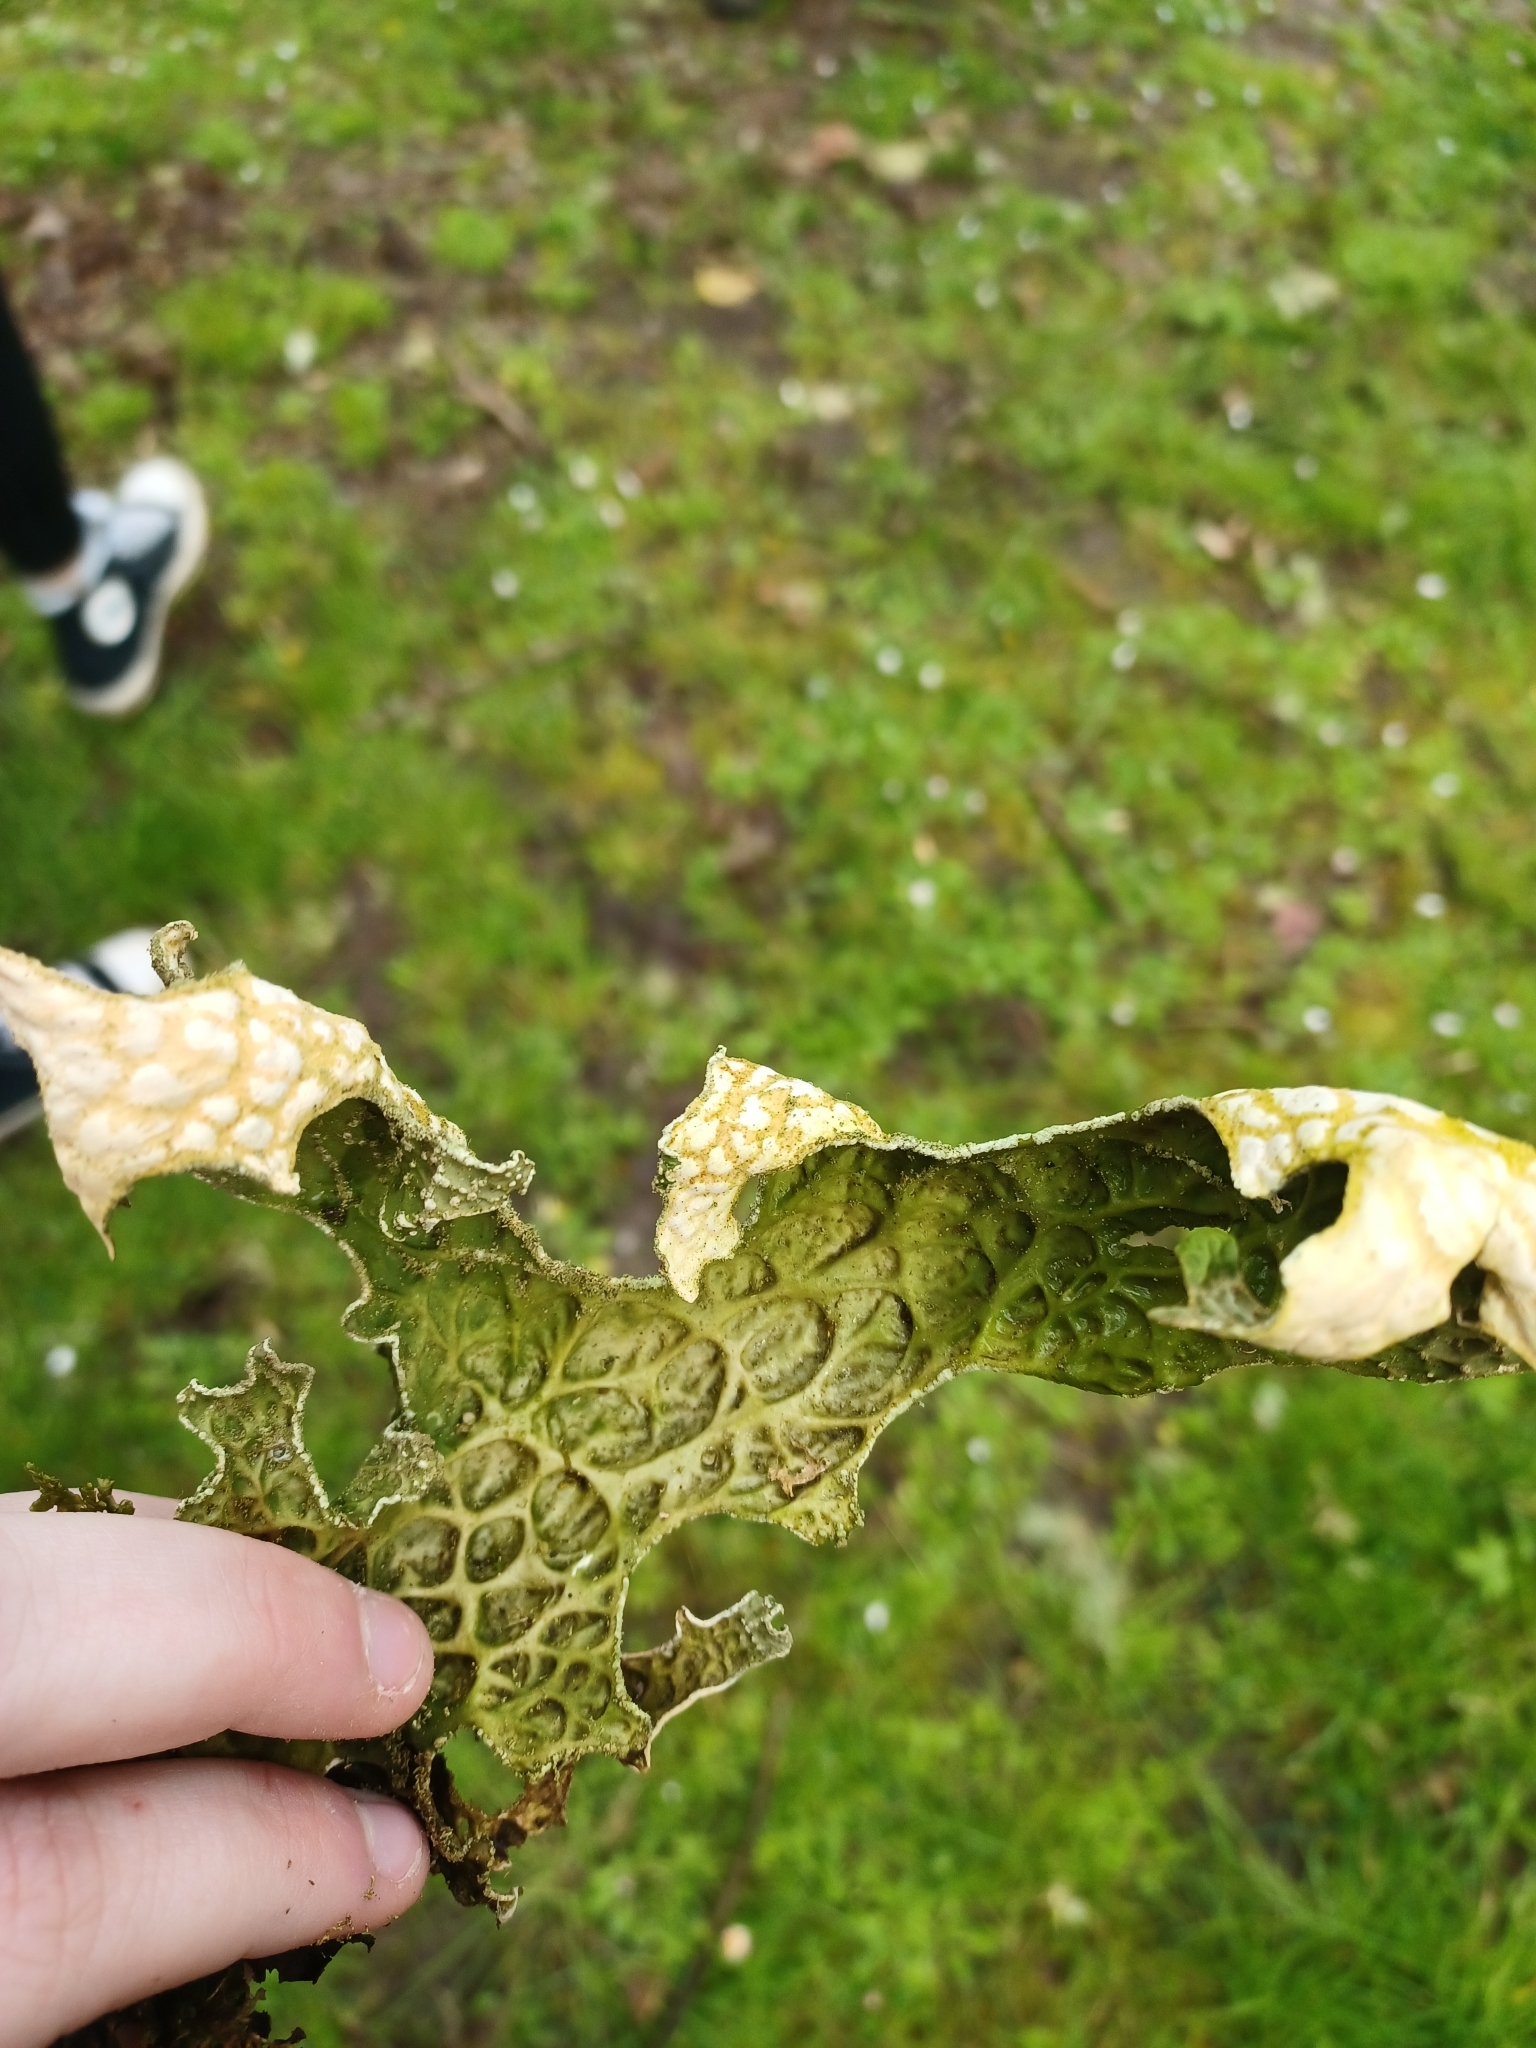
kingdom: Fungi
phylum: Ascomycota
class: Lecanoromycetes
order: Peltigerales
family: Lobariaceae
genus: Lobaria
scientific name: Lobaria pulmonaria
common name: Lungwort
